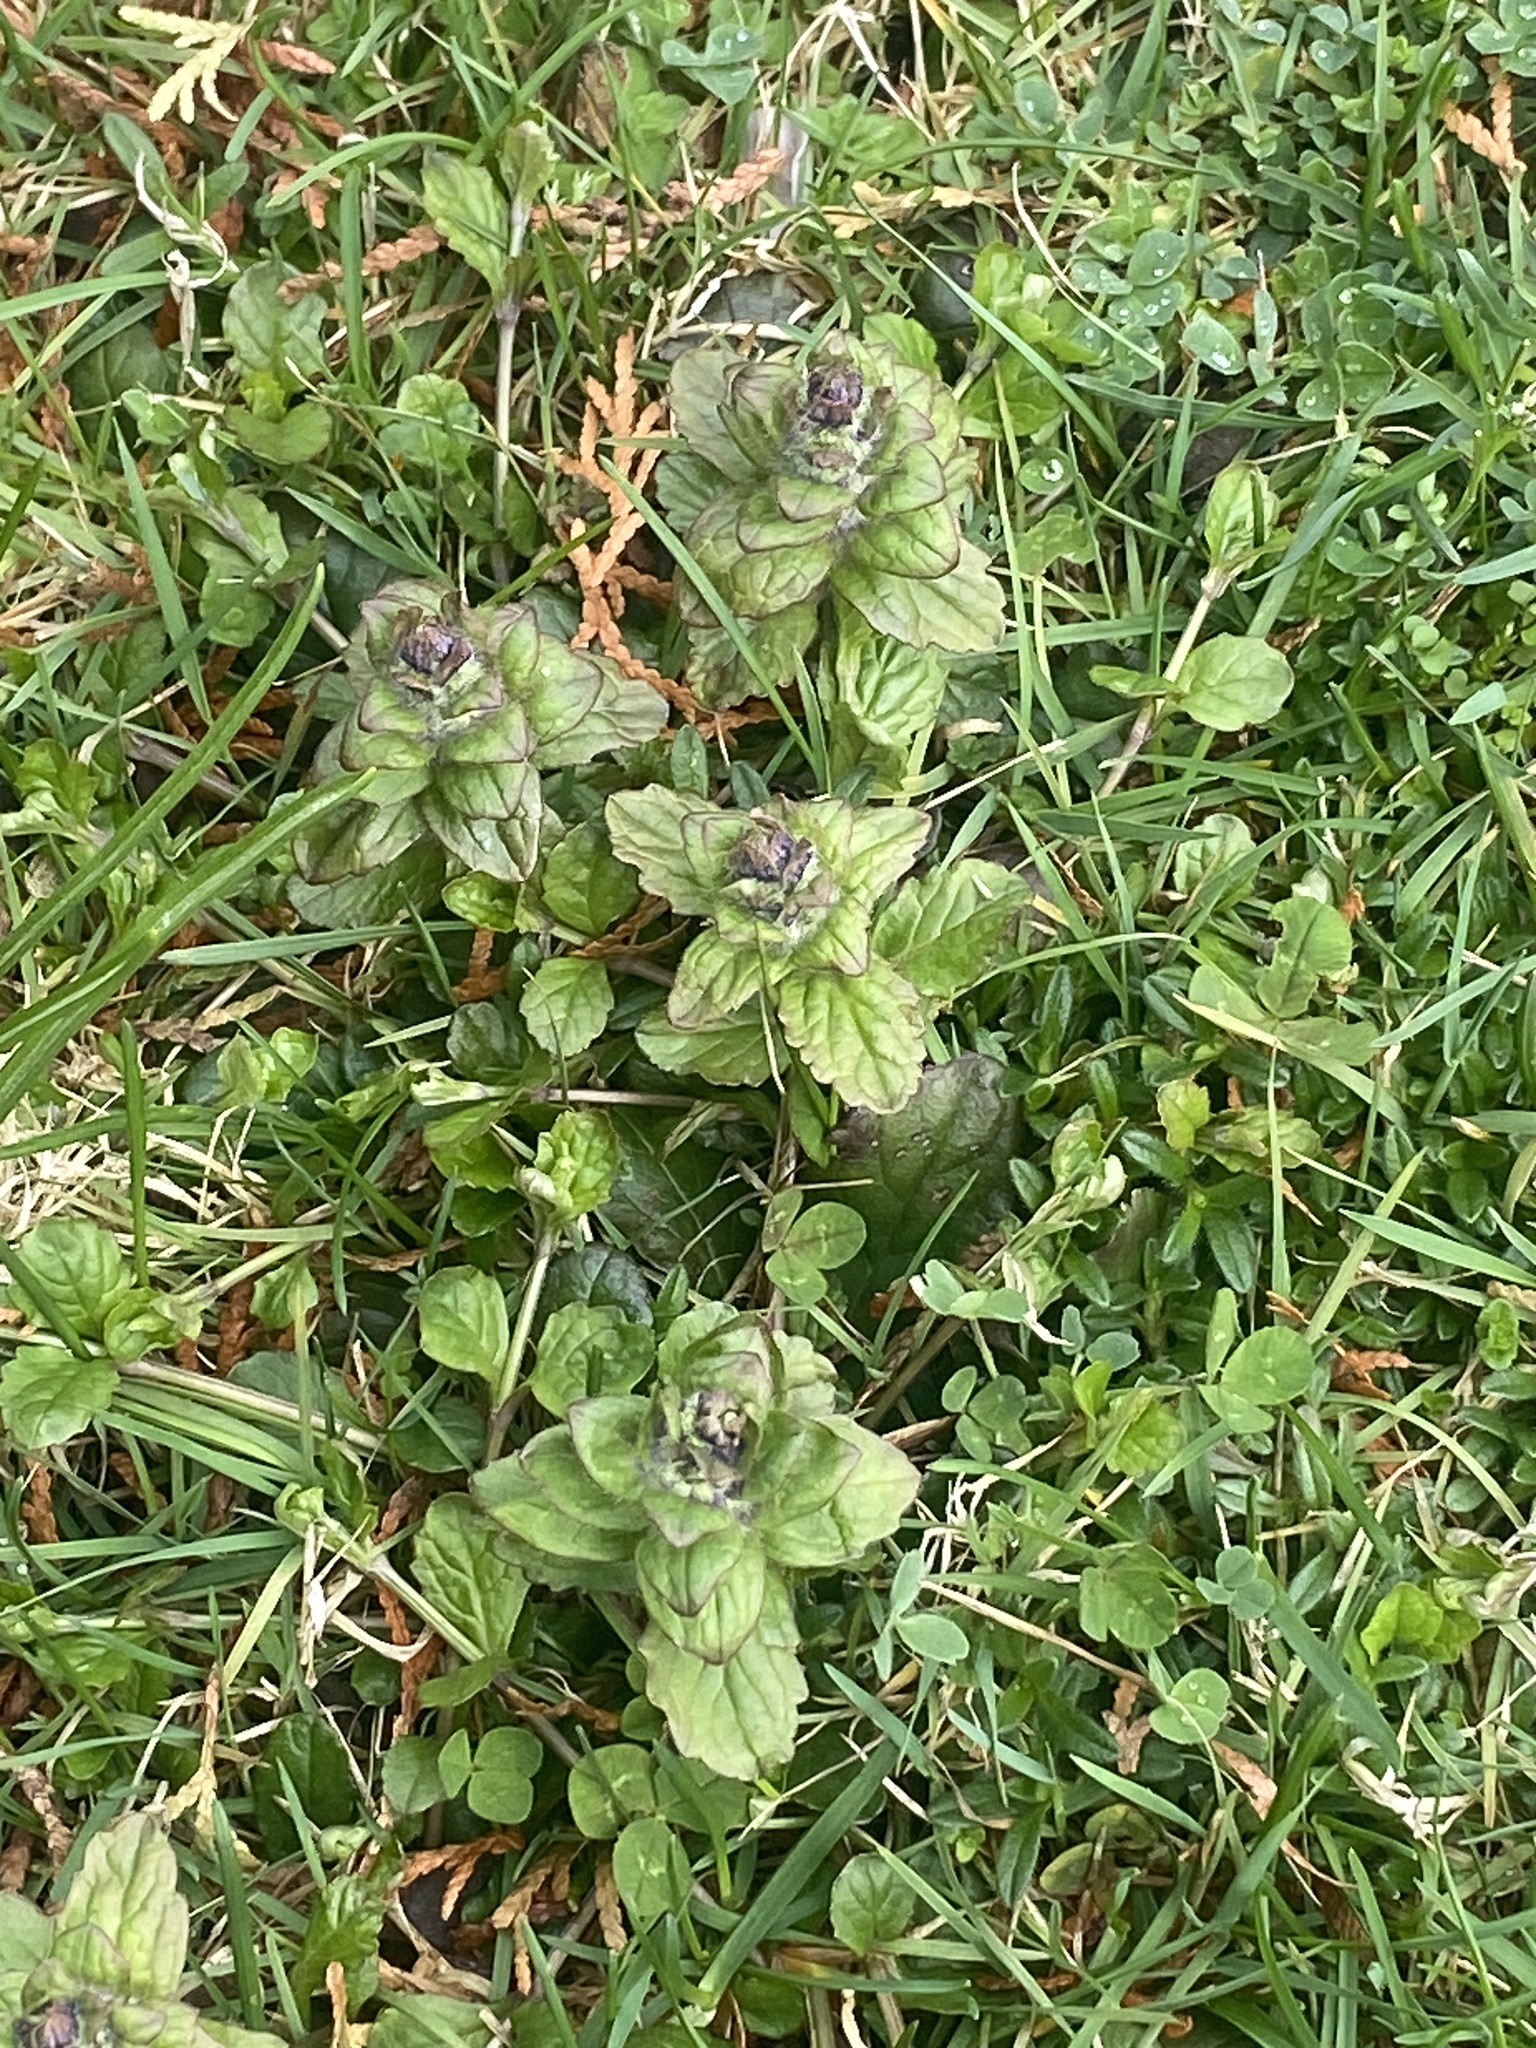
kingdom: Plantae
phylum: Tracheophyta
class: Magnoliopsida
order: Lamiales
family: Lamiaceae
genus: Ajuga
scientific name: Ajuga reptans
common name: Bugle
